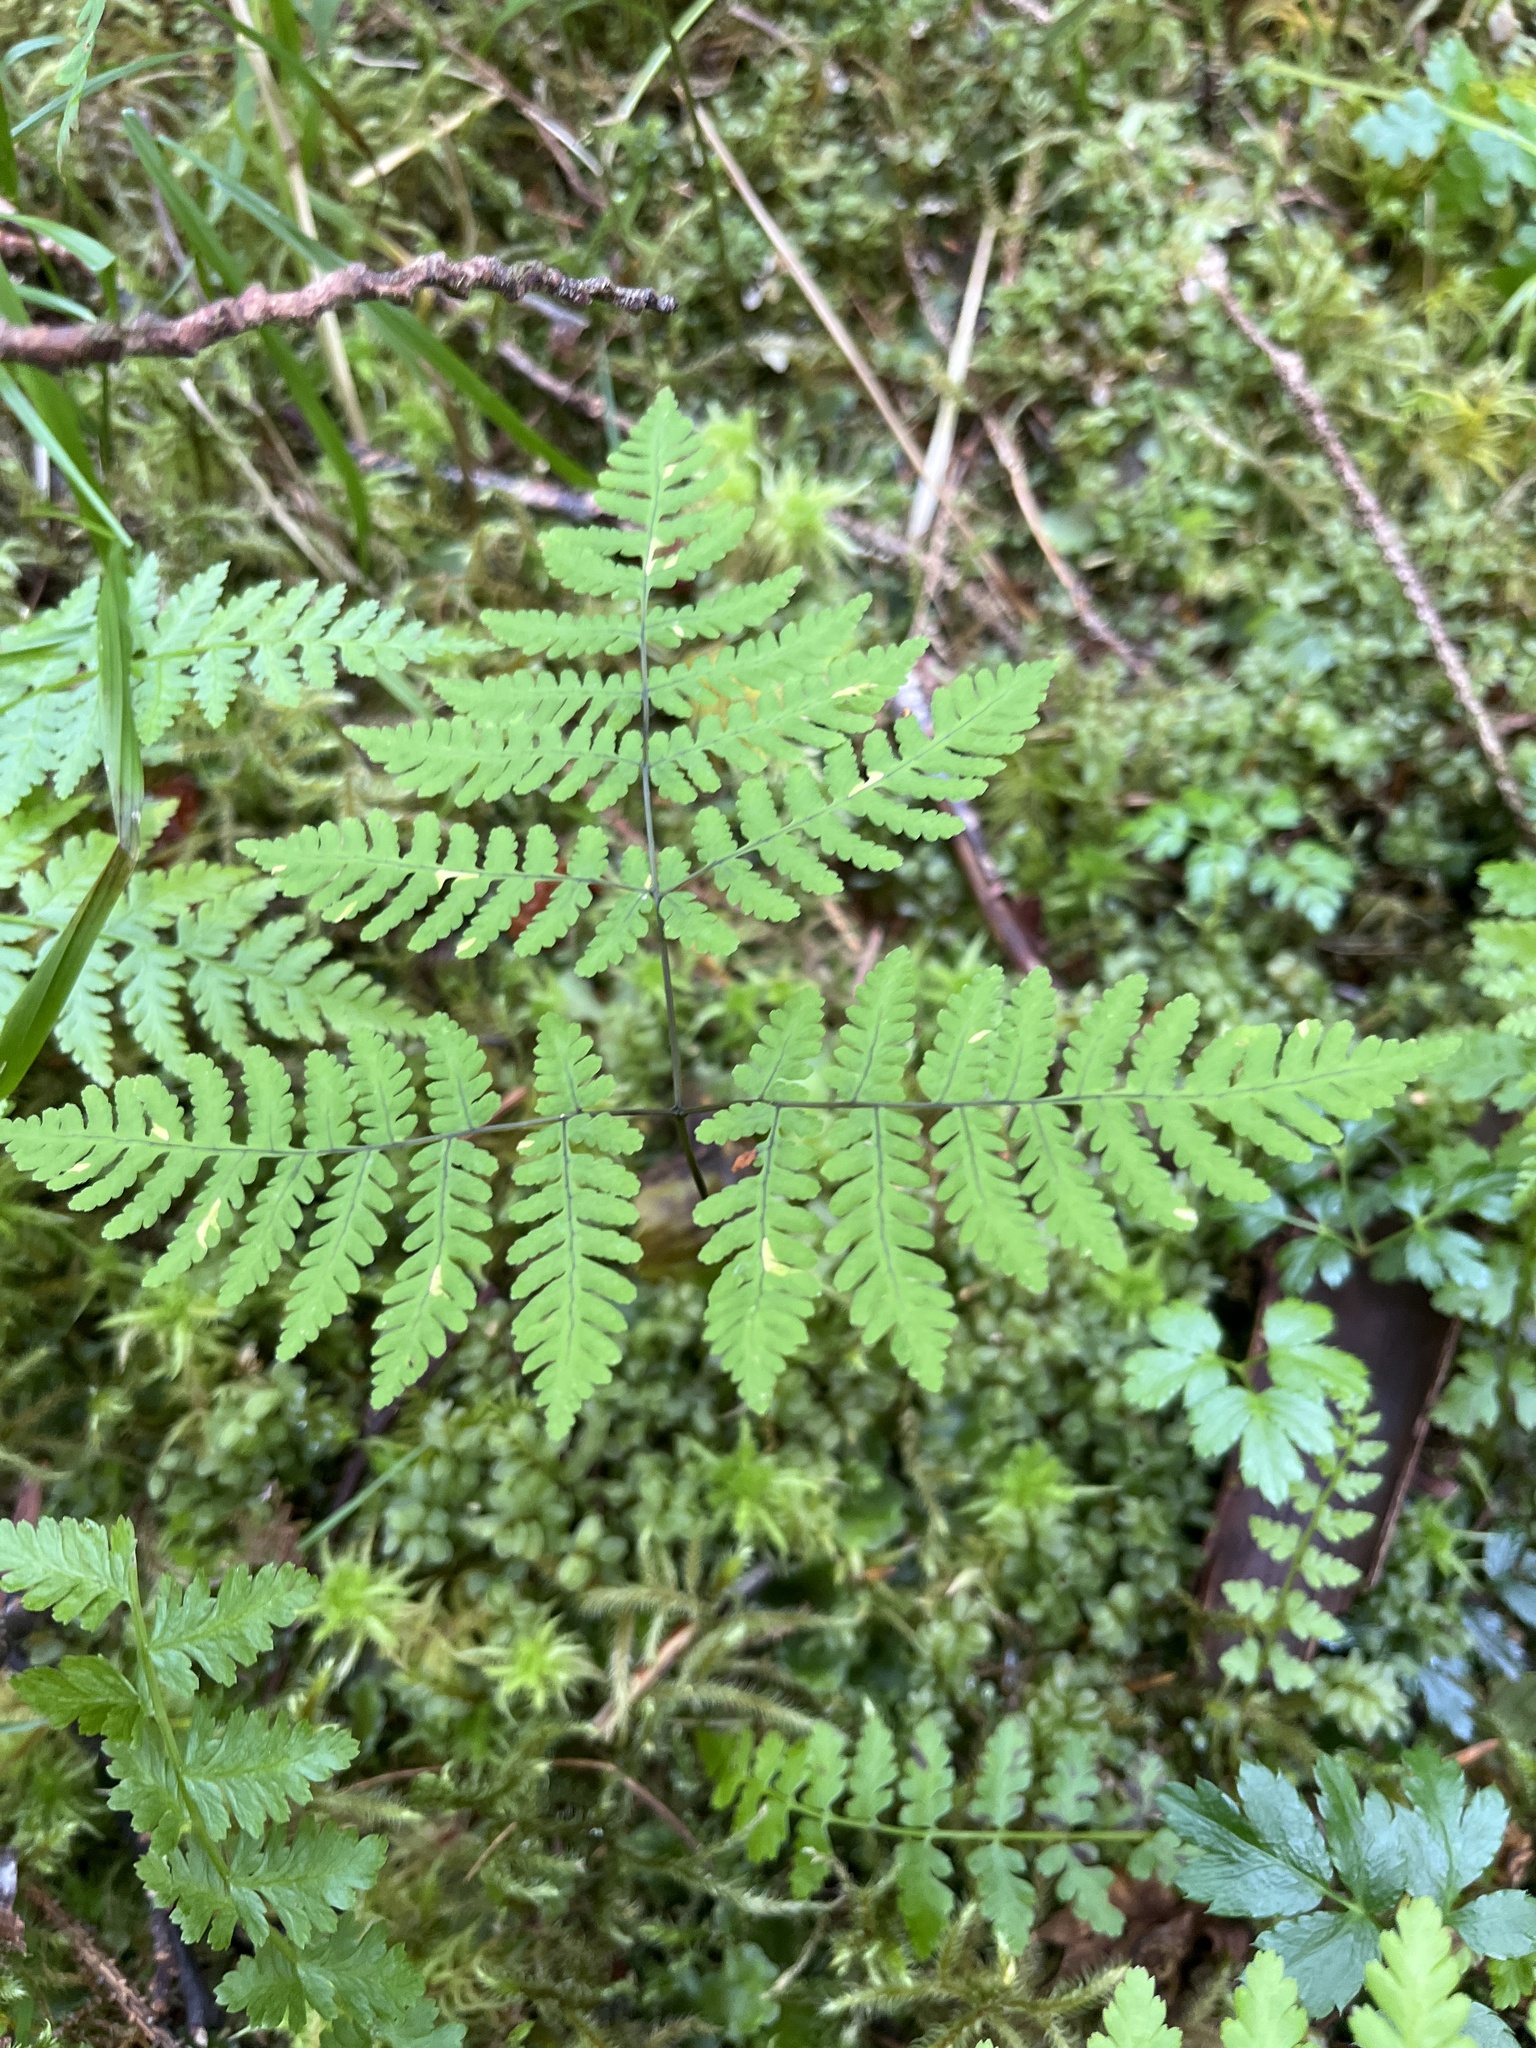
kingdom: Plantae
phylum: Tracheophyta
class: Polypodiopsida
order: Polypodiales
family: Cystopteridaceae
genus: Gymnocarpium
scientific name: Gymnocarpium disjunctum
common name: Western oak fern
